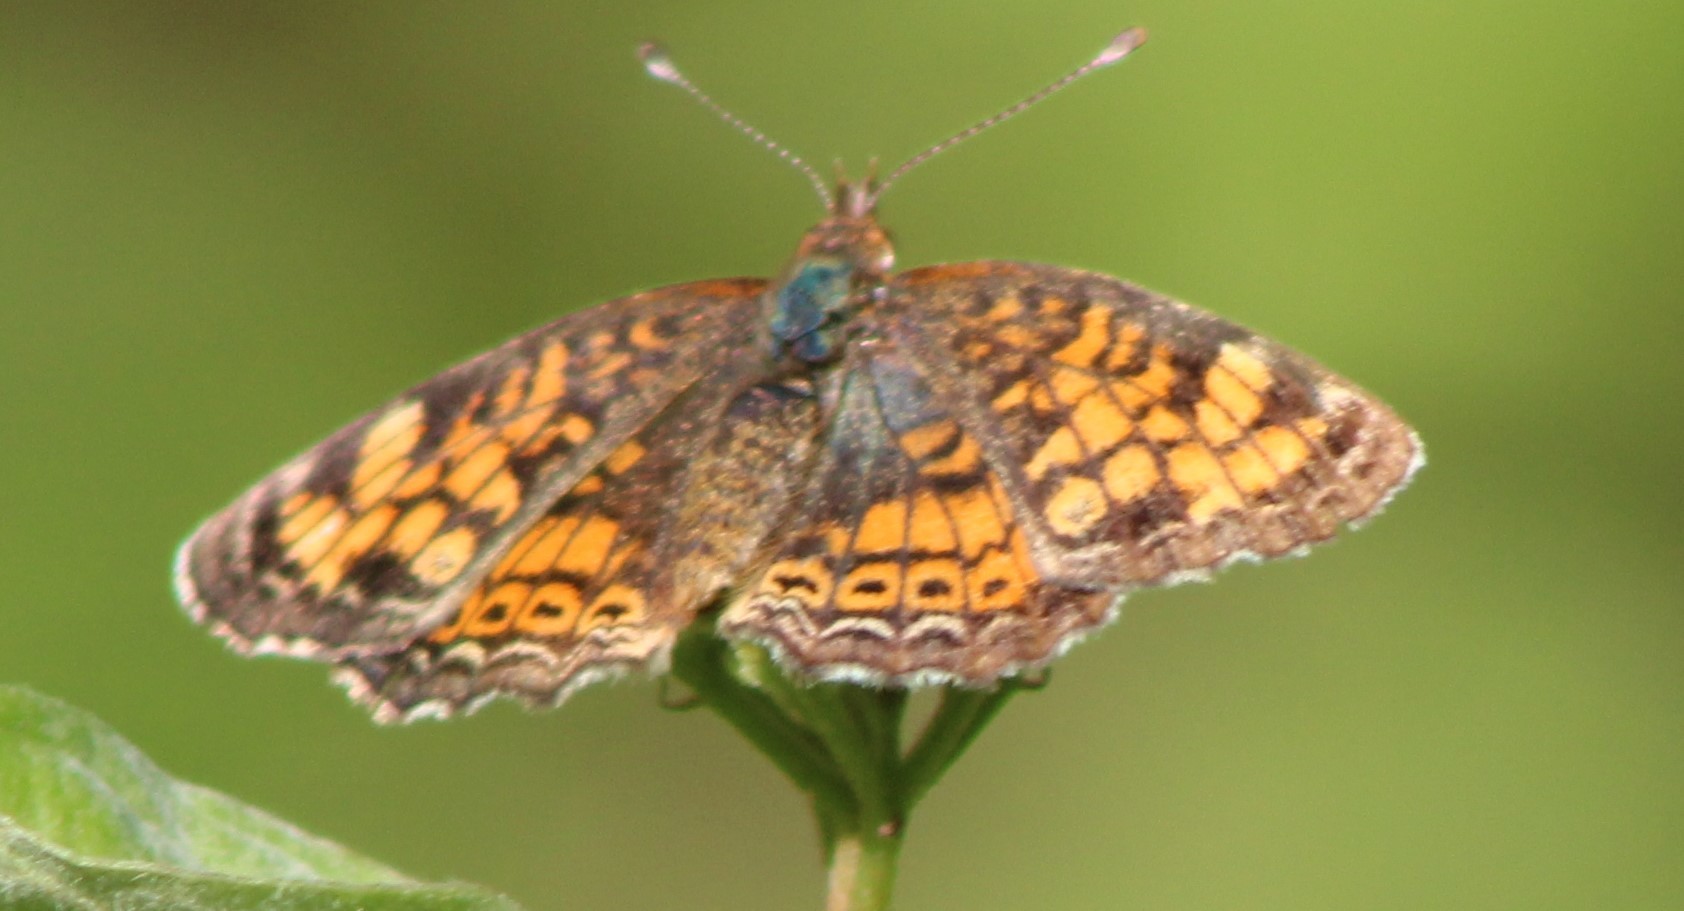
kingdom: Animalia
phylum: Arthropoda
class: Insecta
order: Lepidoptera
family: Nymphalidae
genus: Phyciodes
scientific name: Phyciodes tharos
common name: Pearl crescent
